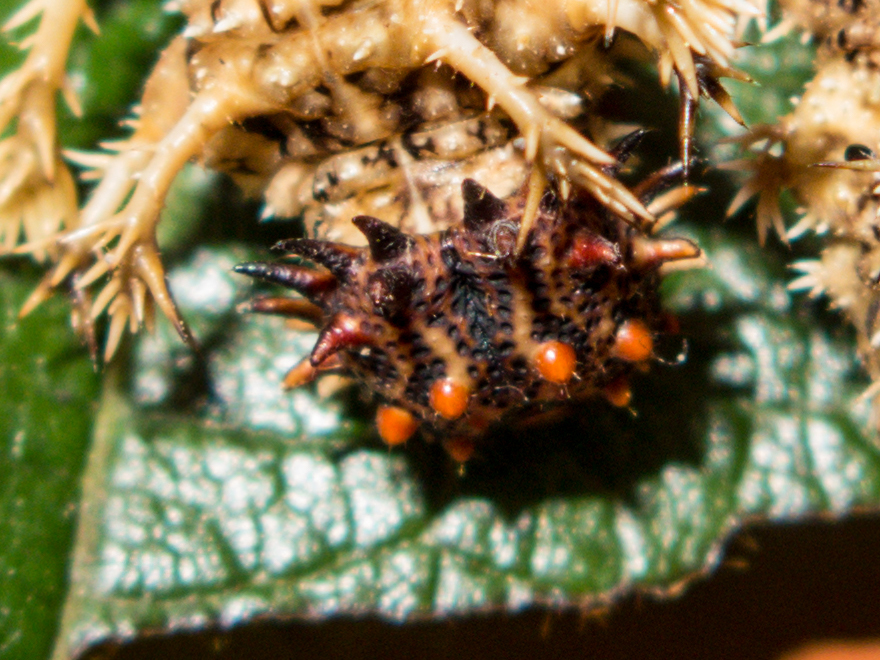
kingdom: Animalia
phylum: Arthropoda
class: Insecta
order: Lepidoptera
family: Nymphalidae
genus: Limenitis
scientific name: Limenitis Moduza procris
